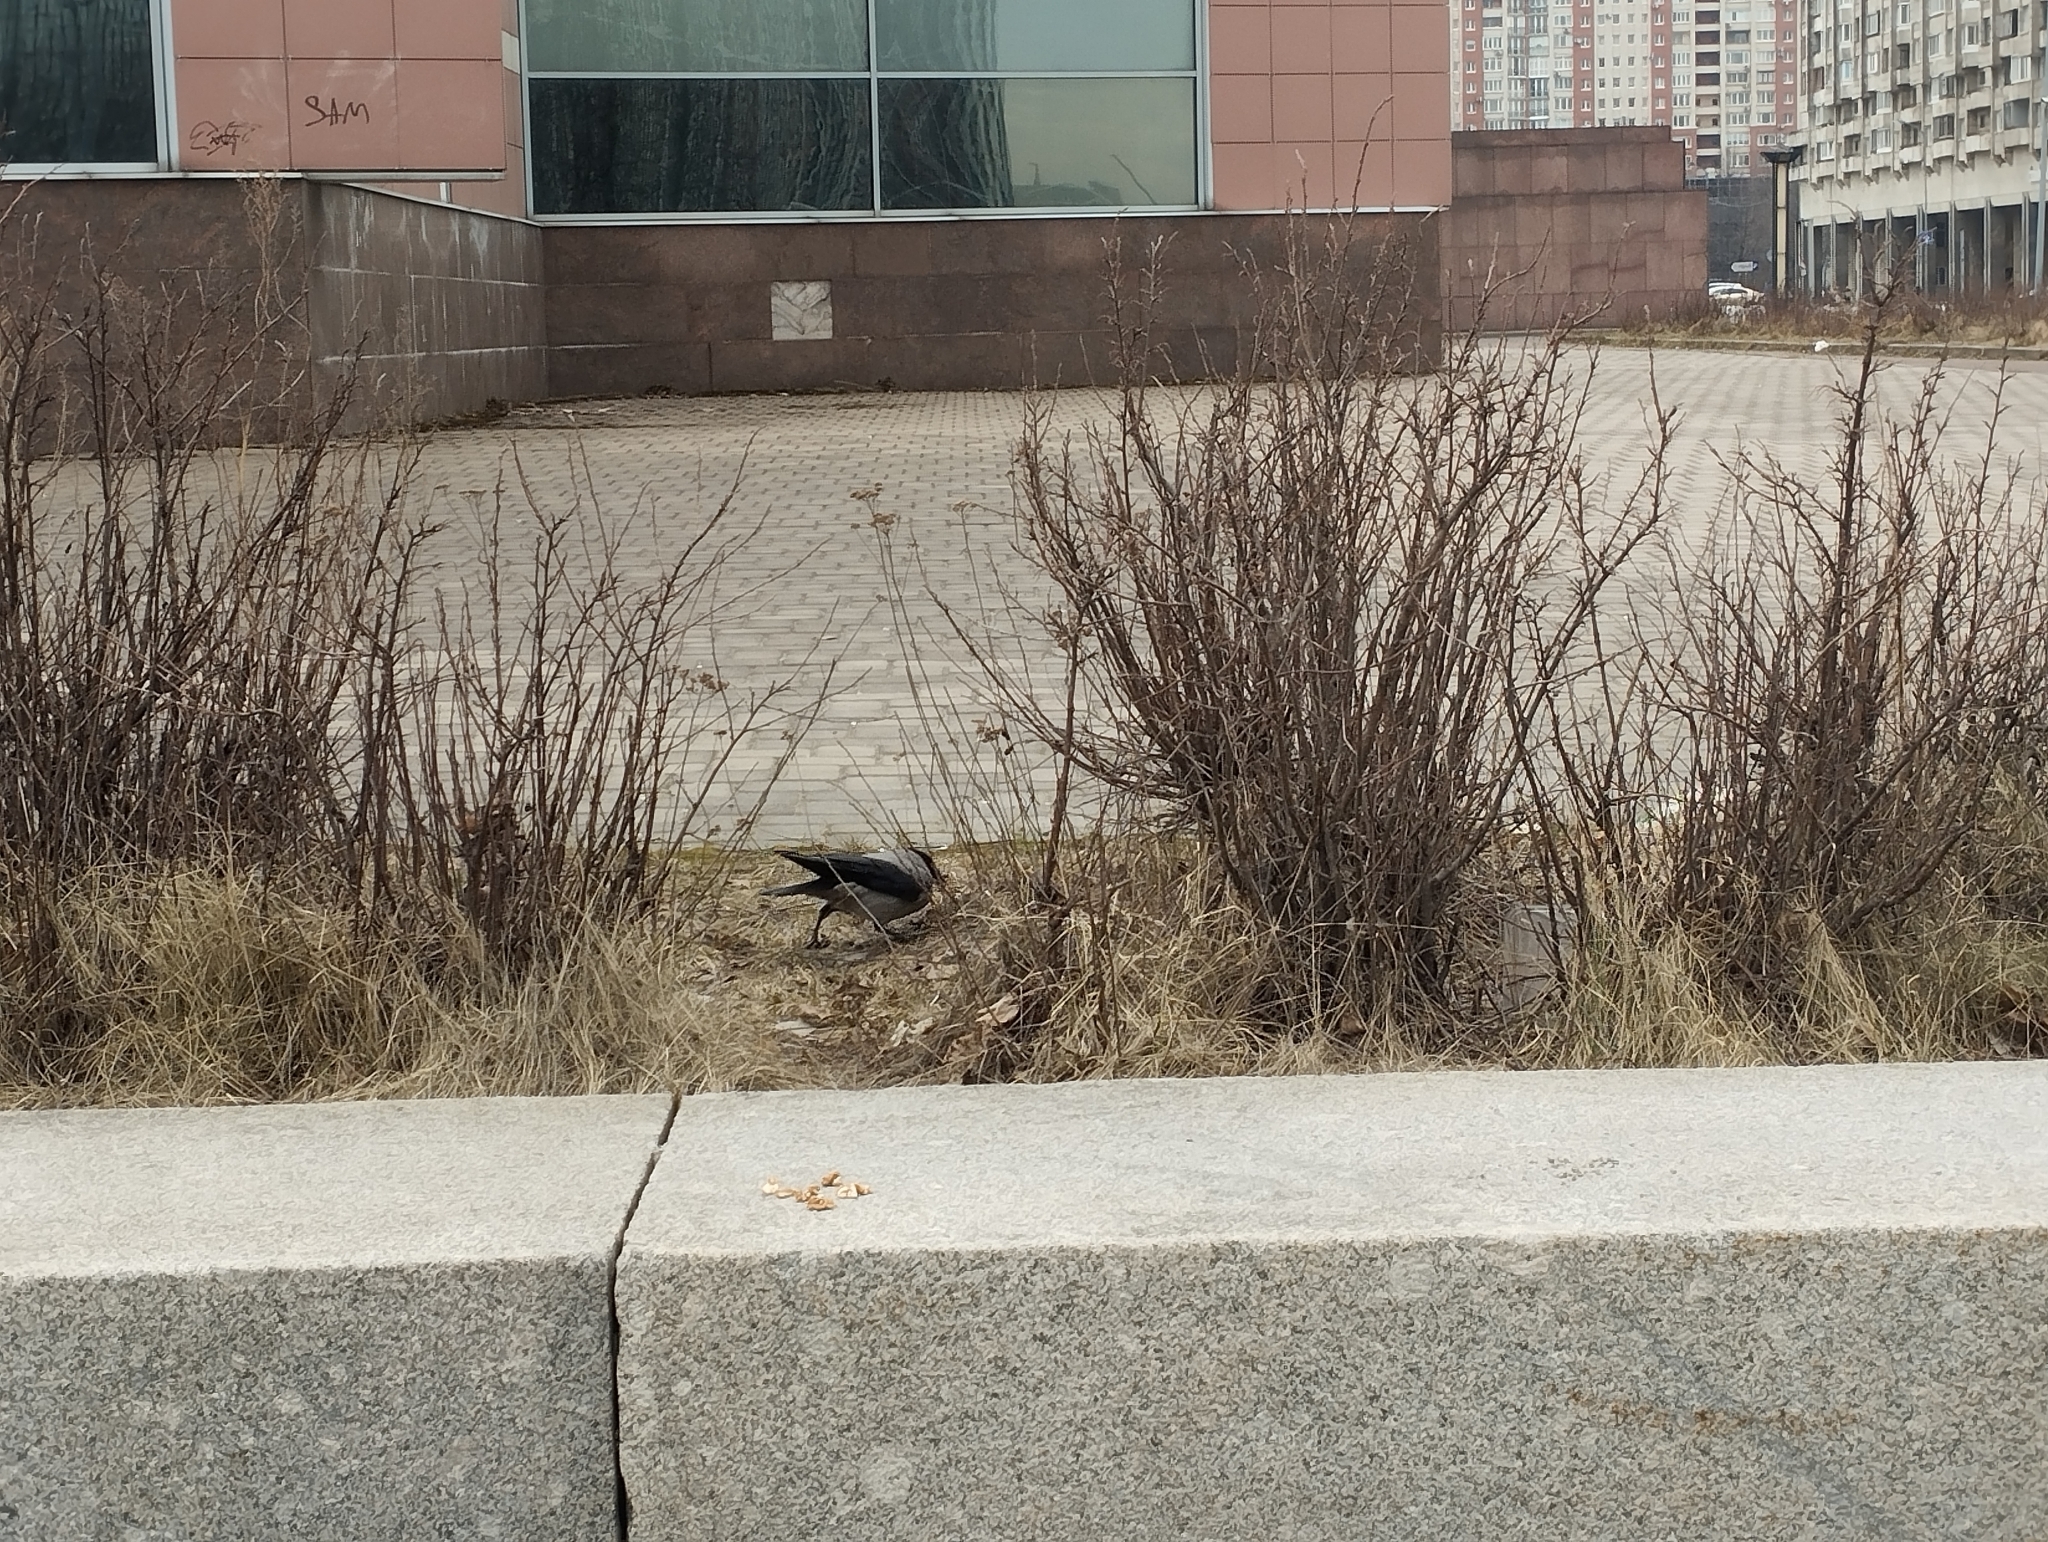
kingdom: Animalia
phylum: Chordata
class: Aves
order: Passeriformes
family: Corvidae
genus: Corvus
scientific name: Corvus cornix
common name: Hooded crow
